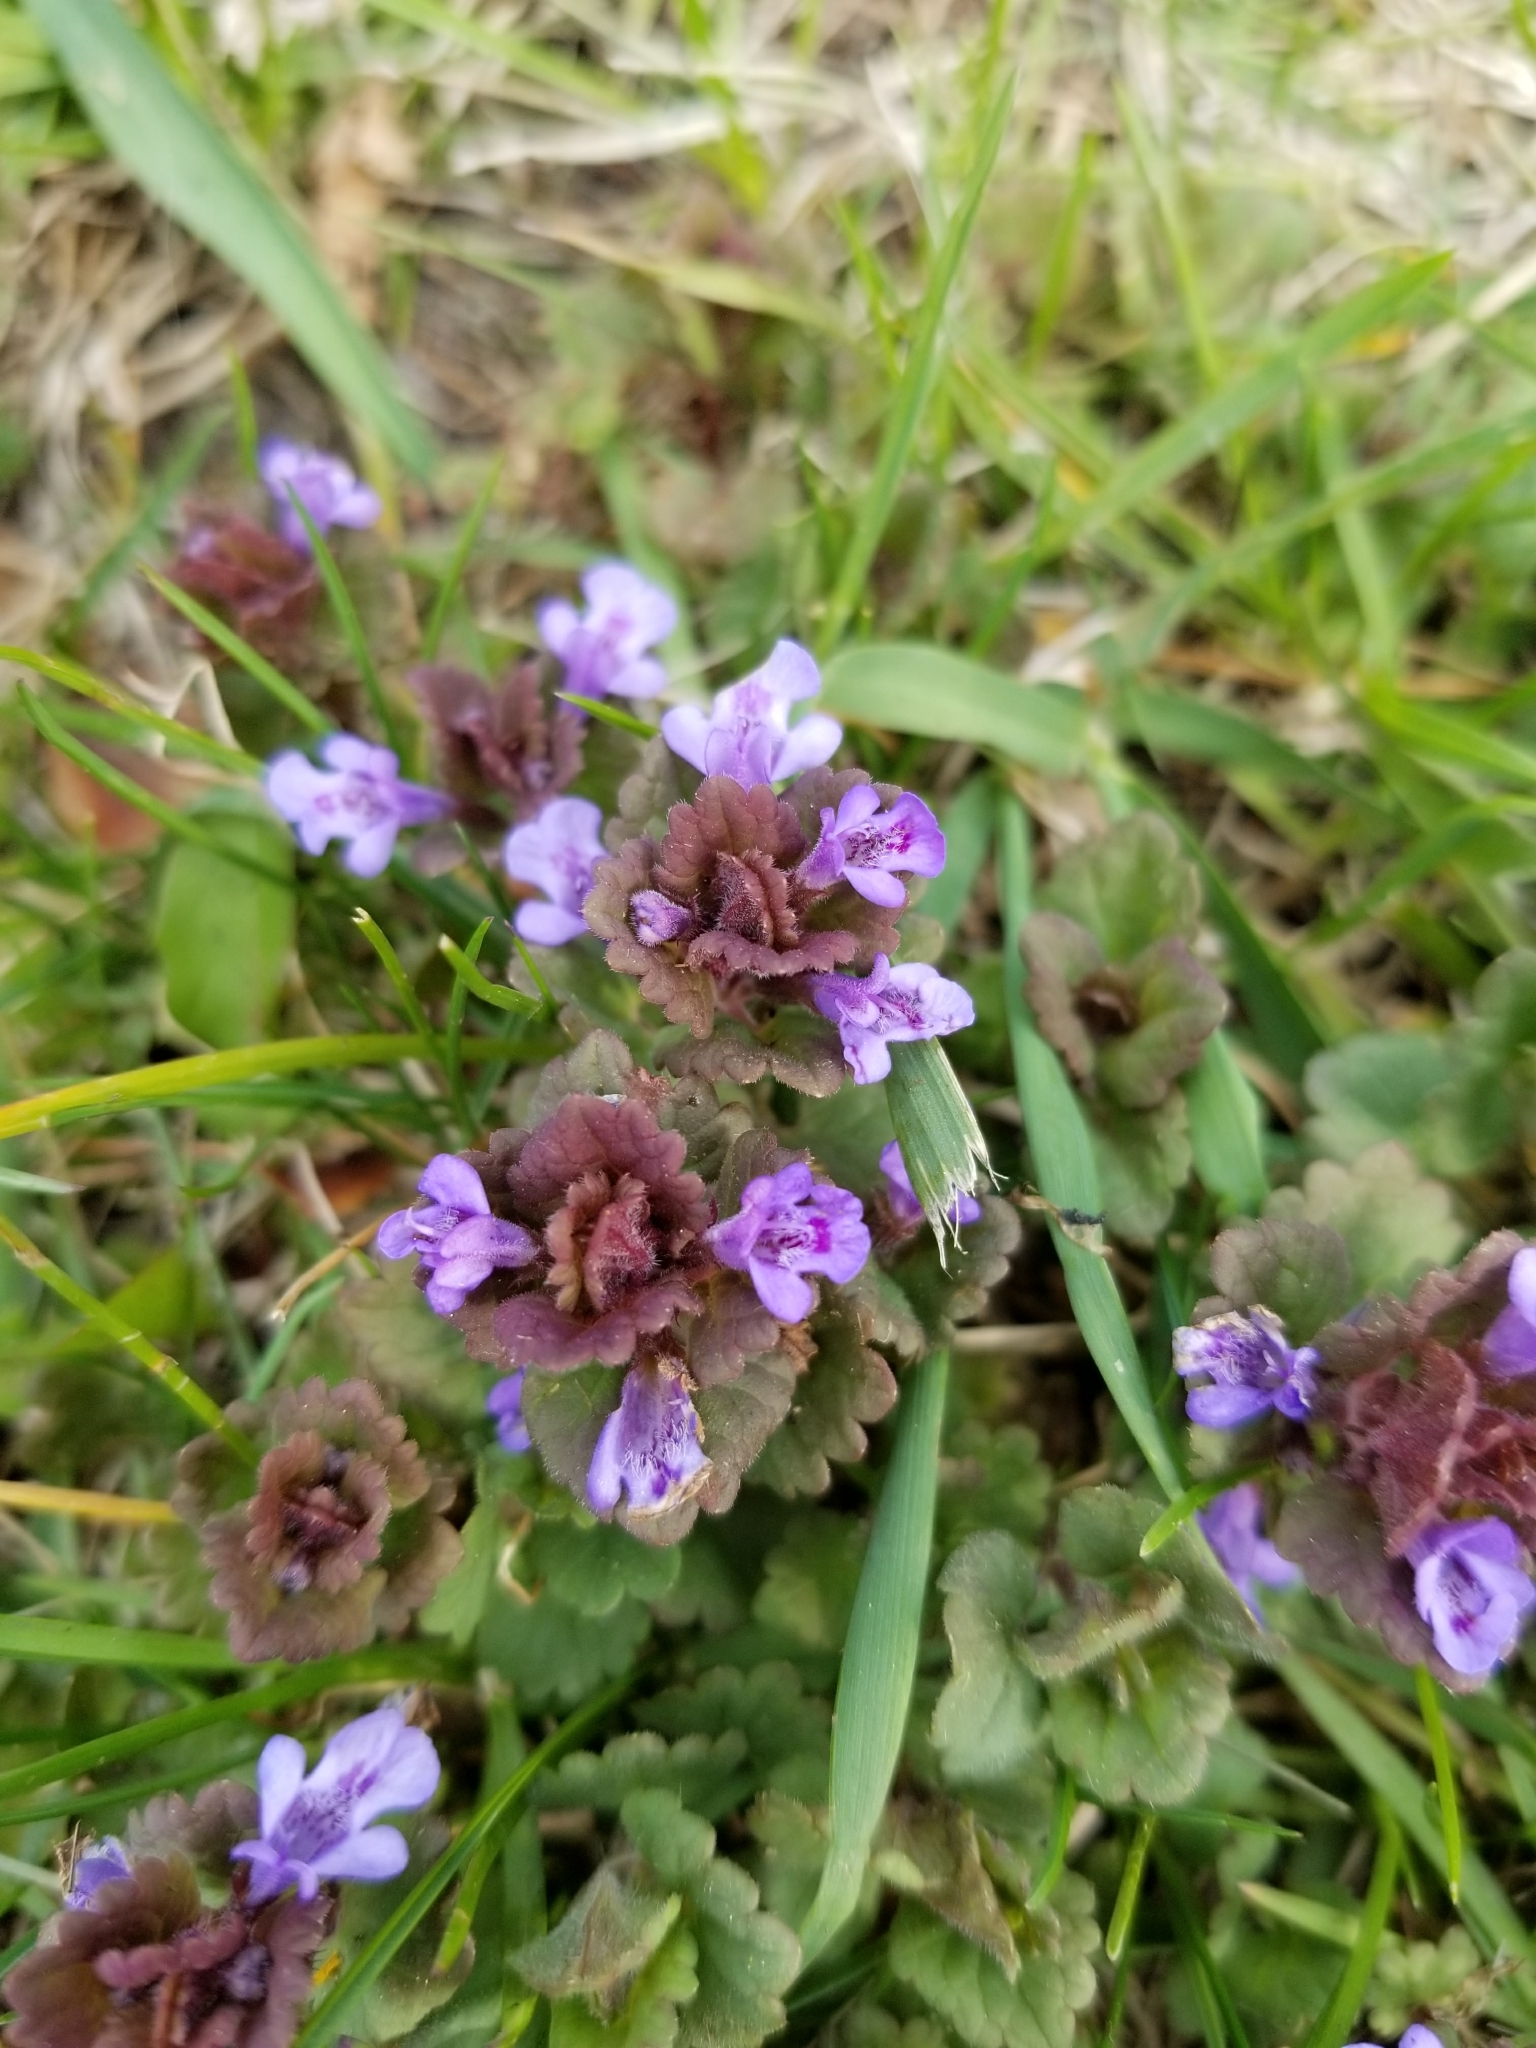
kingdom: Plantae
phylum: Tracheophyta
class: Magnoliopsida
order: Lamiales
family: Lamiaceae
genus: Glechoma
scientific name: Glechoma hederacea
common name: Ground ivy
